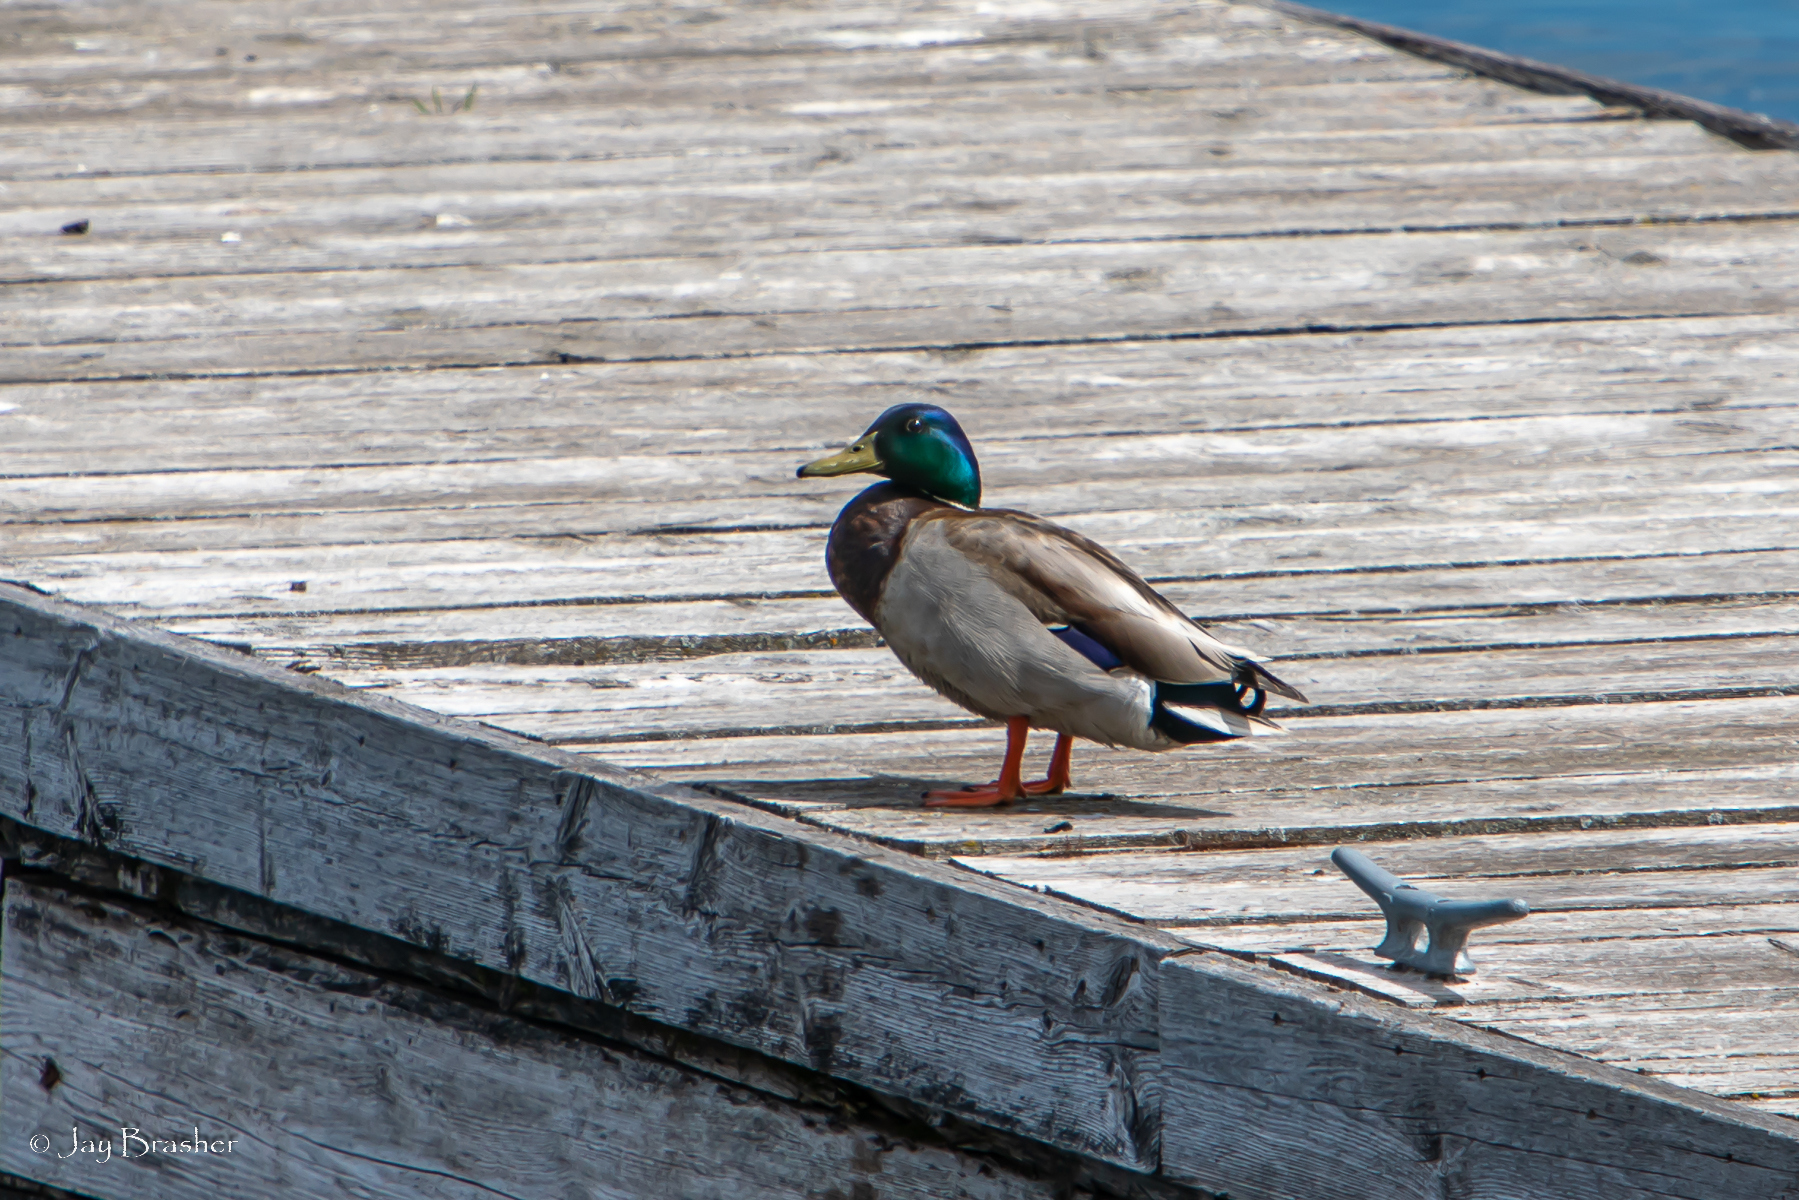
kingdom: Animalia
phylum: Chordata
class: Aves
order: Anseriformes
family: Anatidae
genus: Anas
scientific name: Anas platyrhynchos
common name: Mallard
